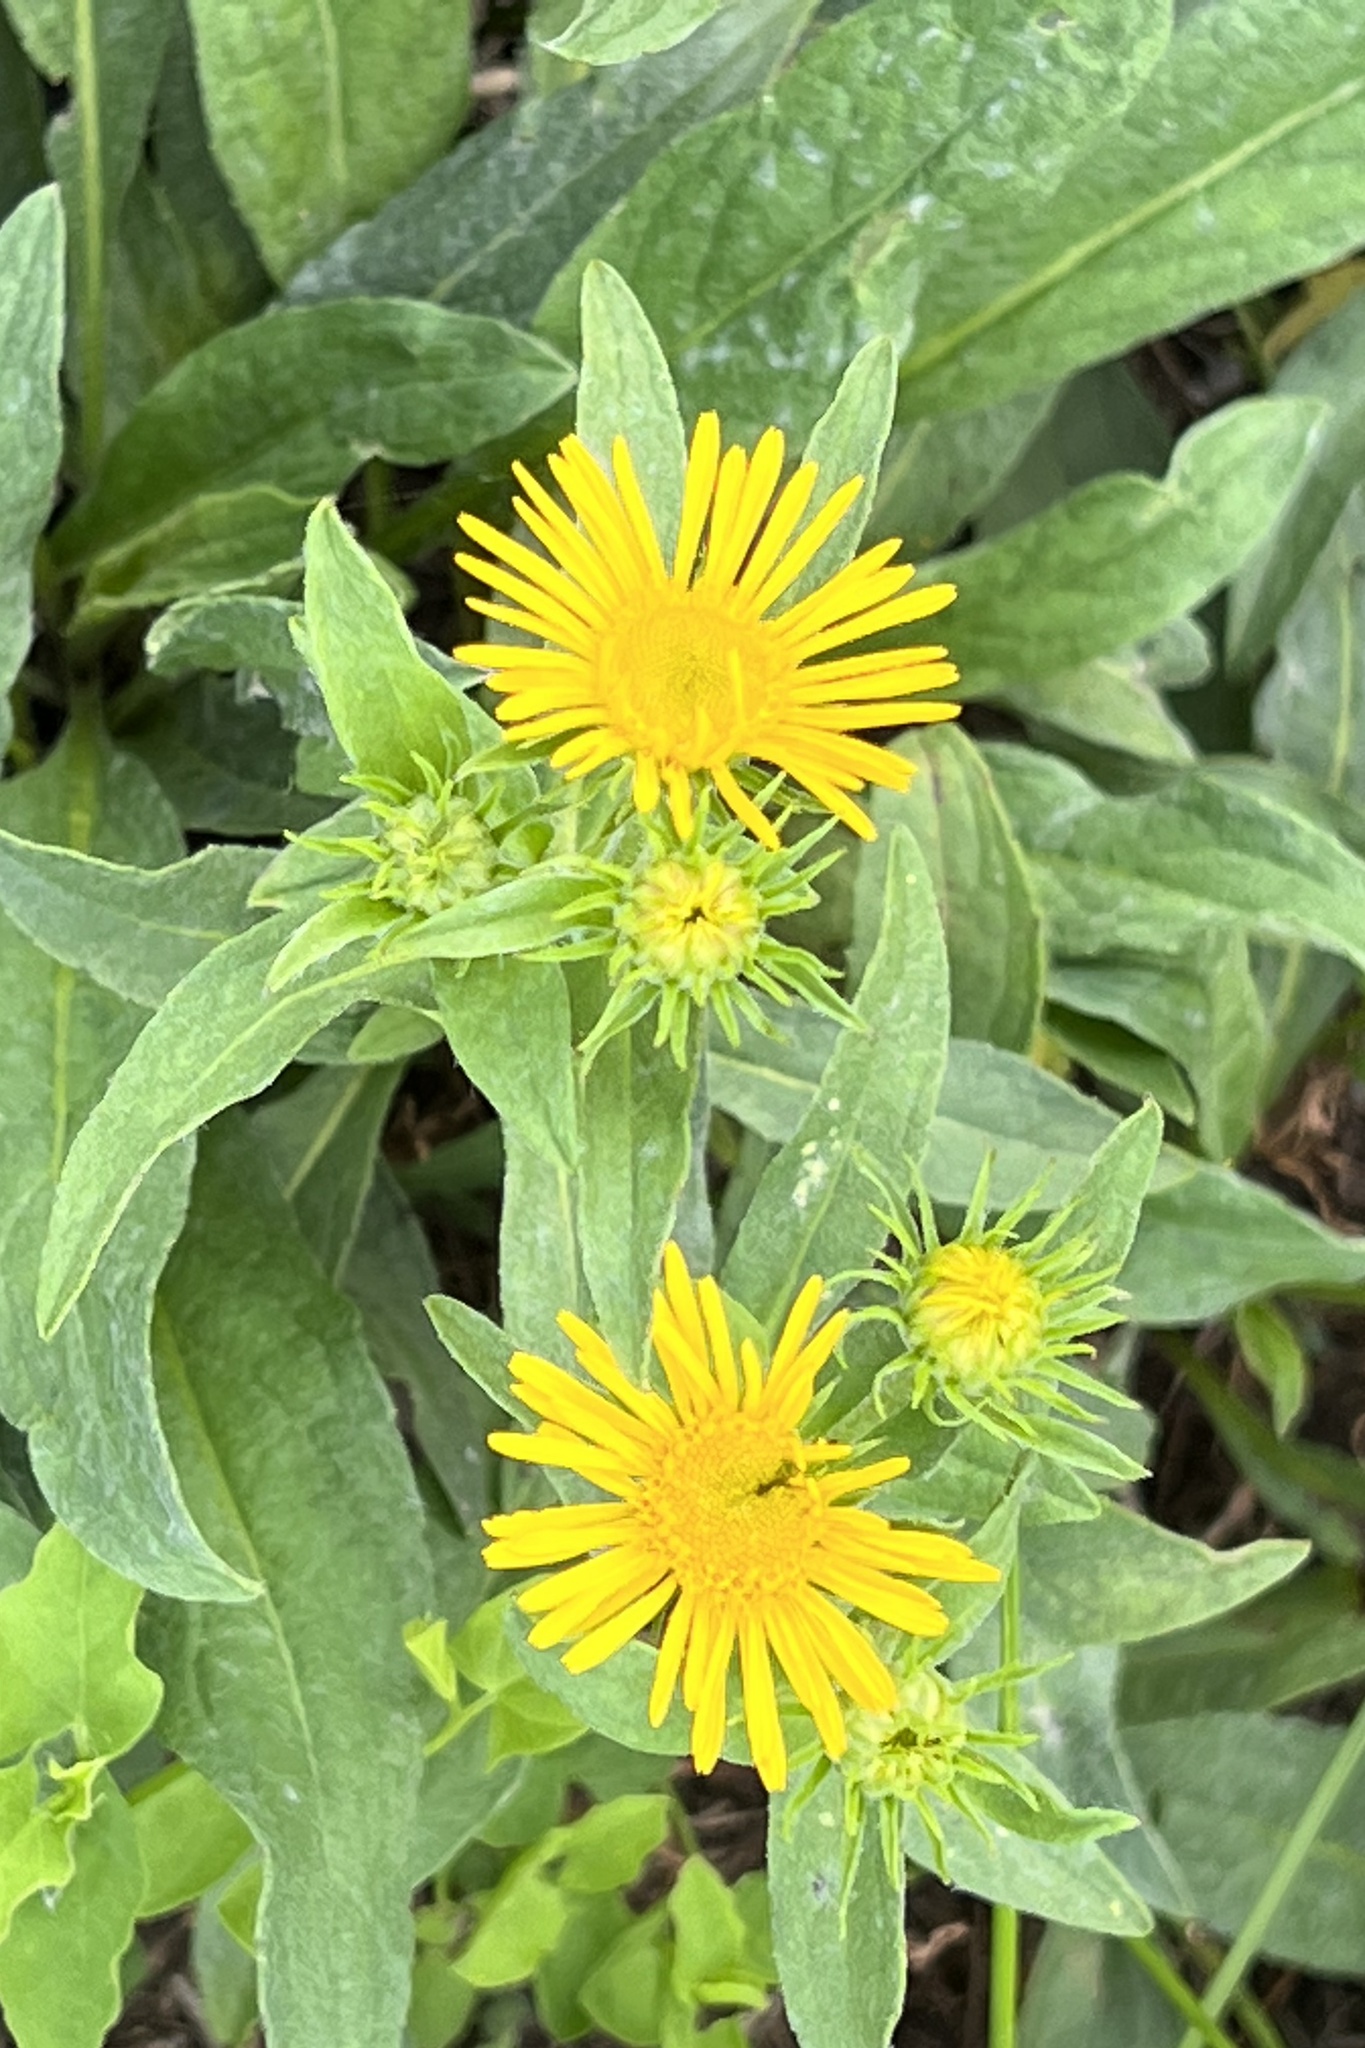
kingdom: Plantae
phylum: Tracheophyta
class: Magnoliopsida
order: Asterales
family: Asteraceae
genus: Pentanema
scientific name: Pentanema britannicum
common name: British elecampane
